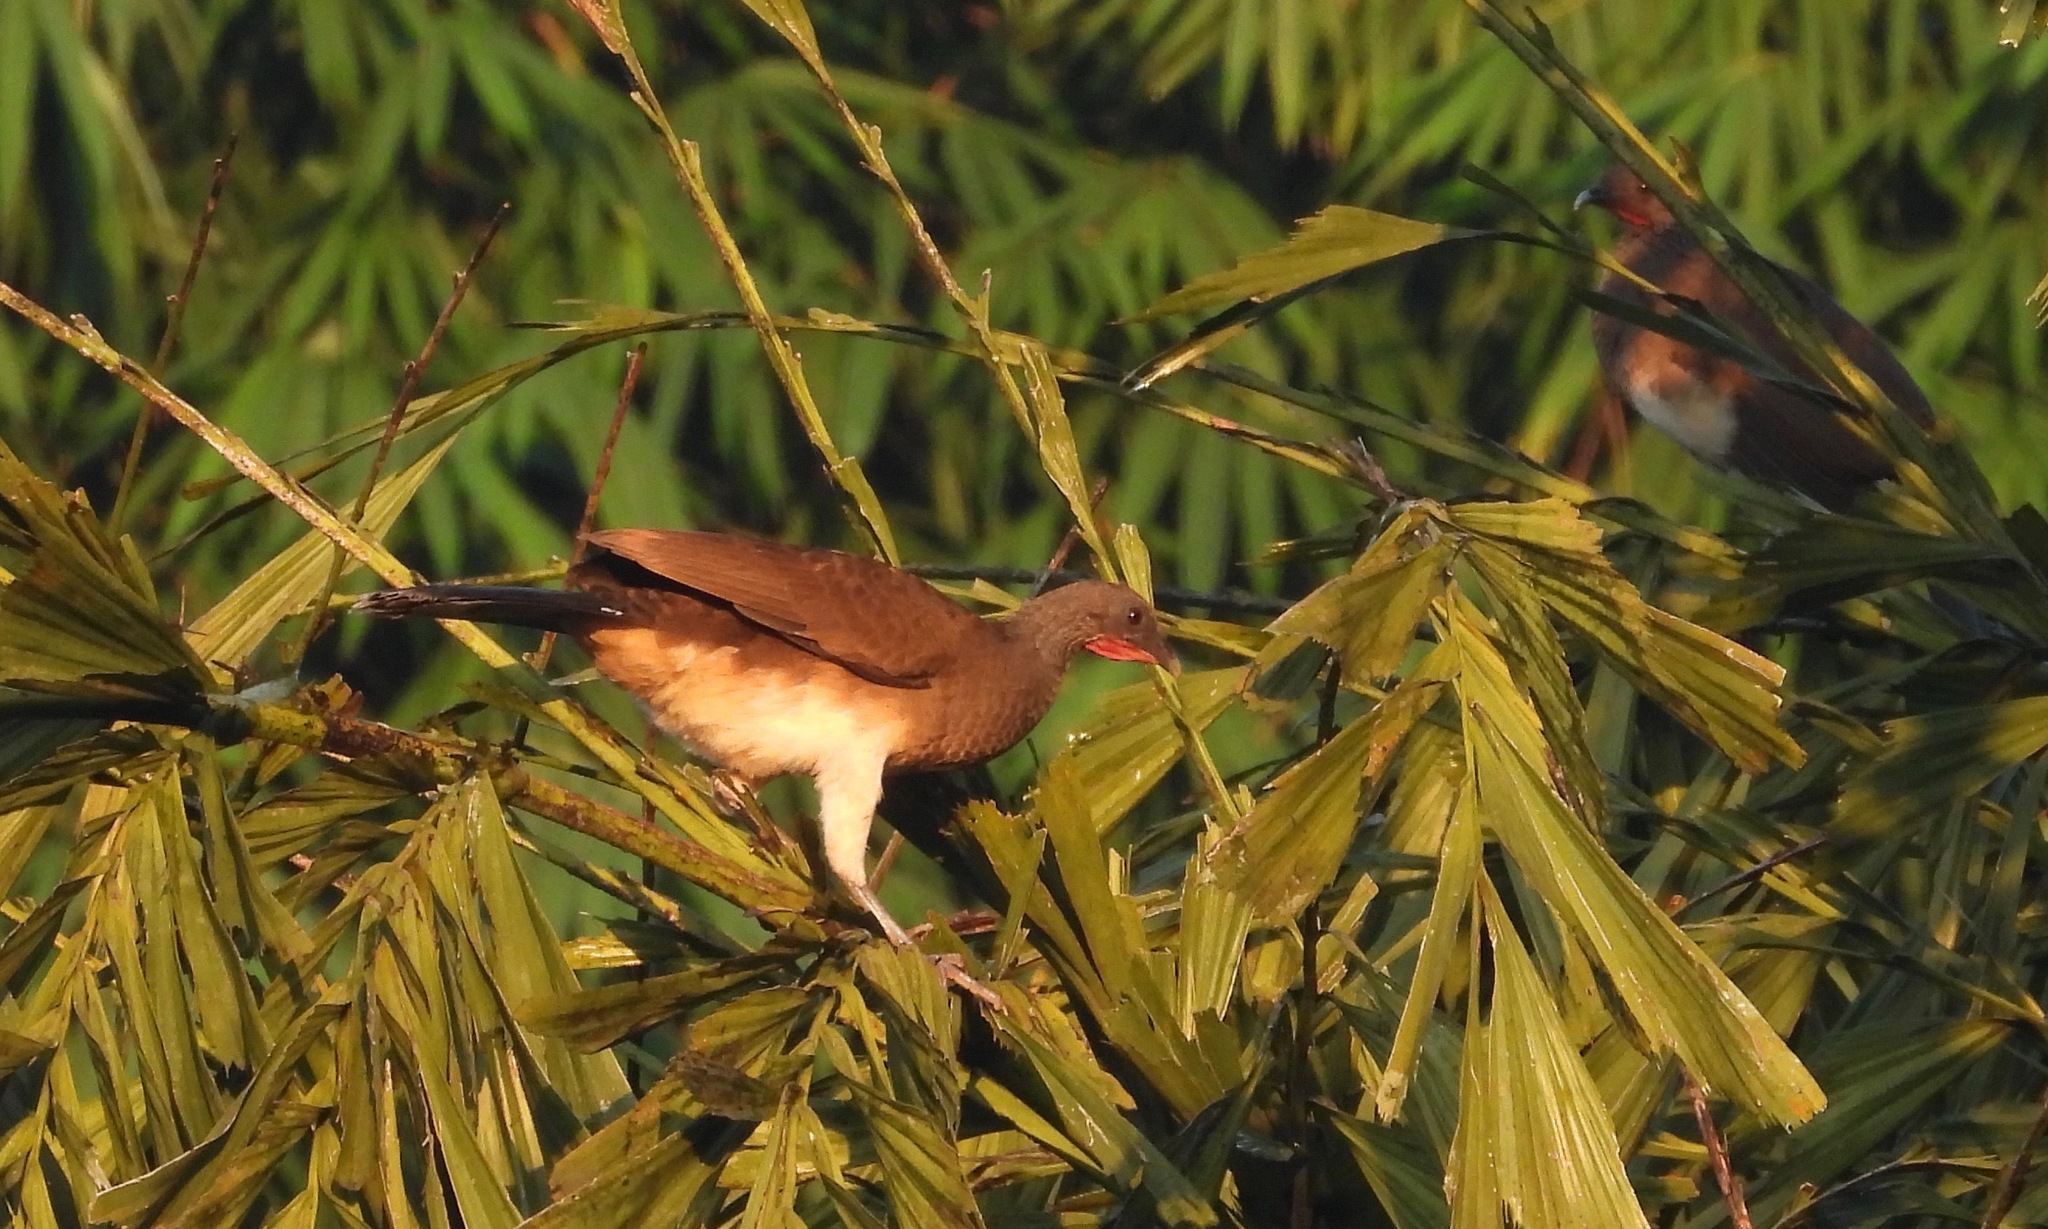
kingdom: Animalia
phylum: Chordata
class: Aves
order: Galliformes
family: Cracidae
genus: Ortalis
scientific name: Ortalis leucogastra
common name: White-bellied chachalaca
